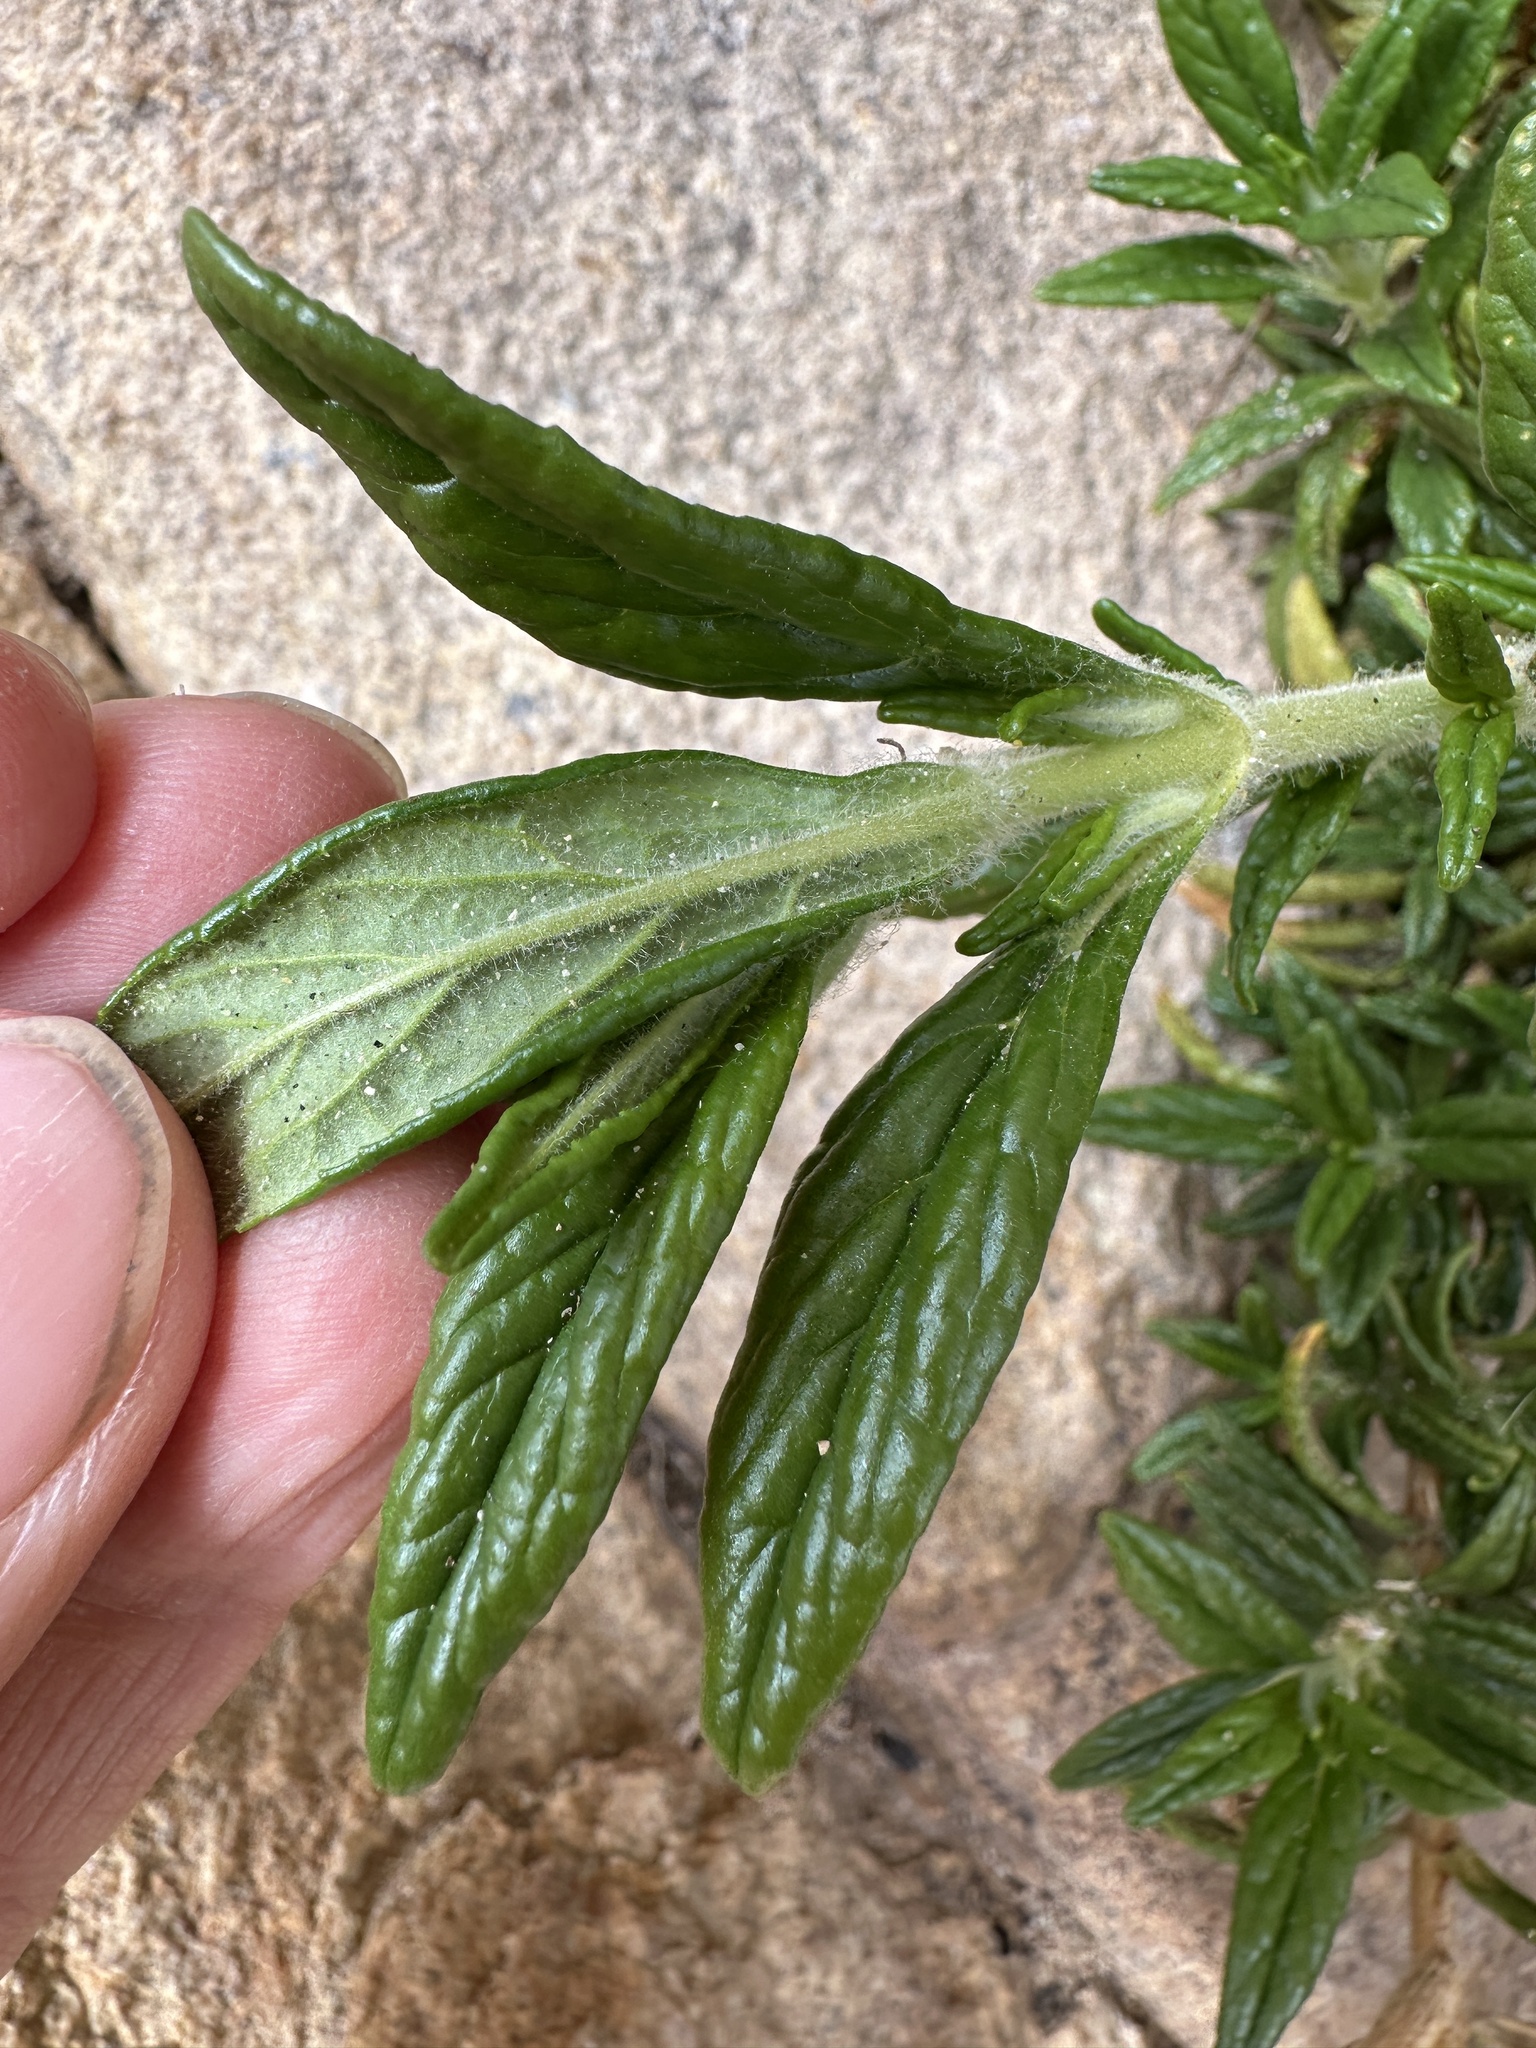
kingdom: Plantae
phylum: Tracheophyta
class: Magnoliopsida
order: Lamiales
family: Phrymaceae
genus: Diplacus
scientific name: Diplacus calycinus
